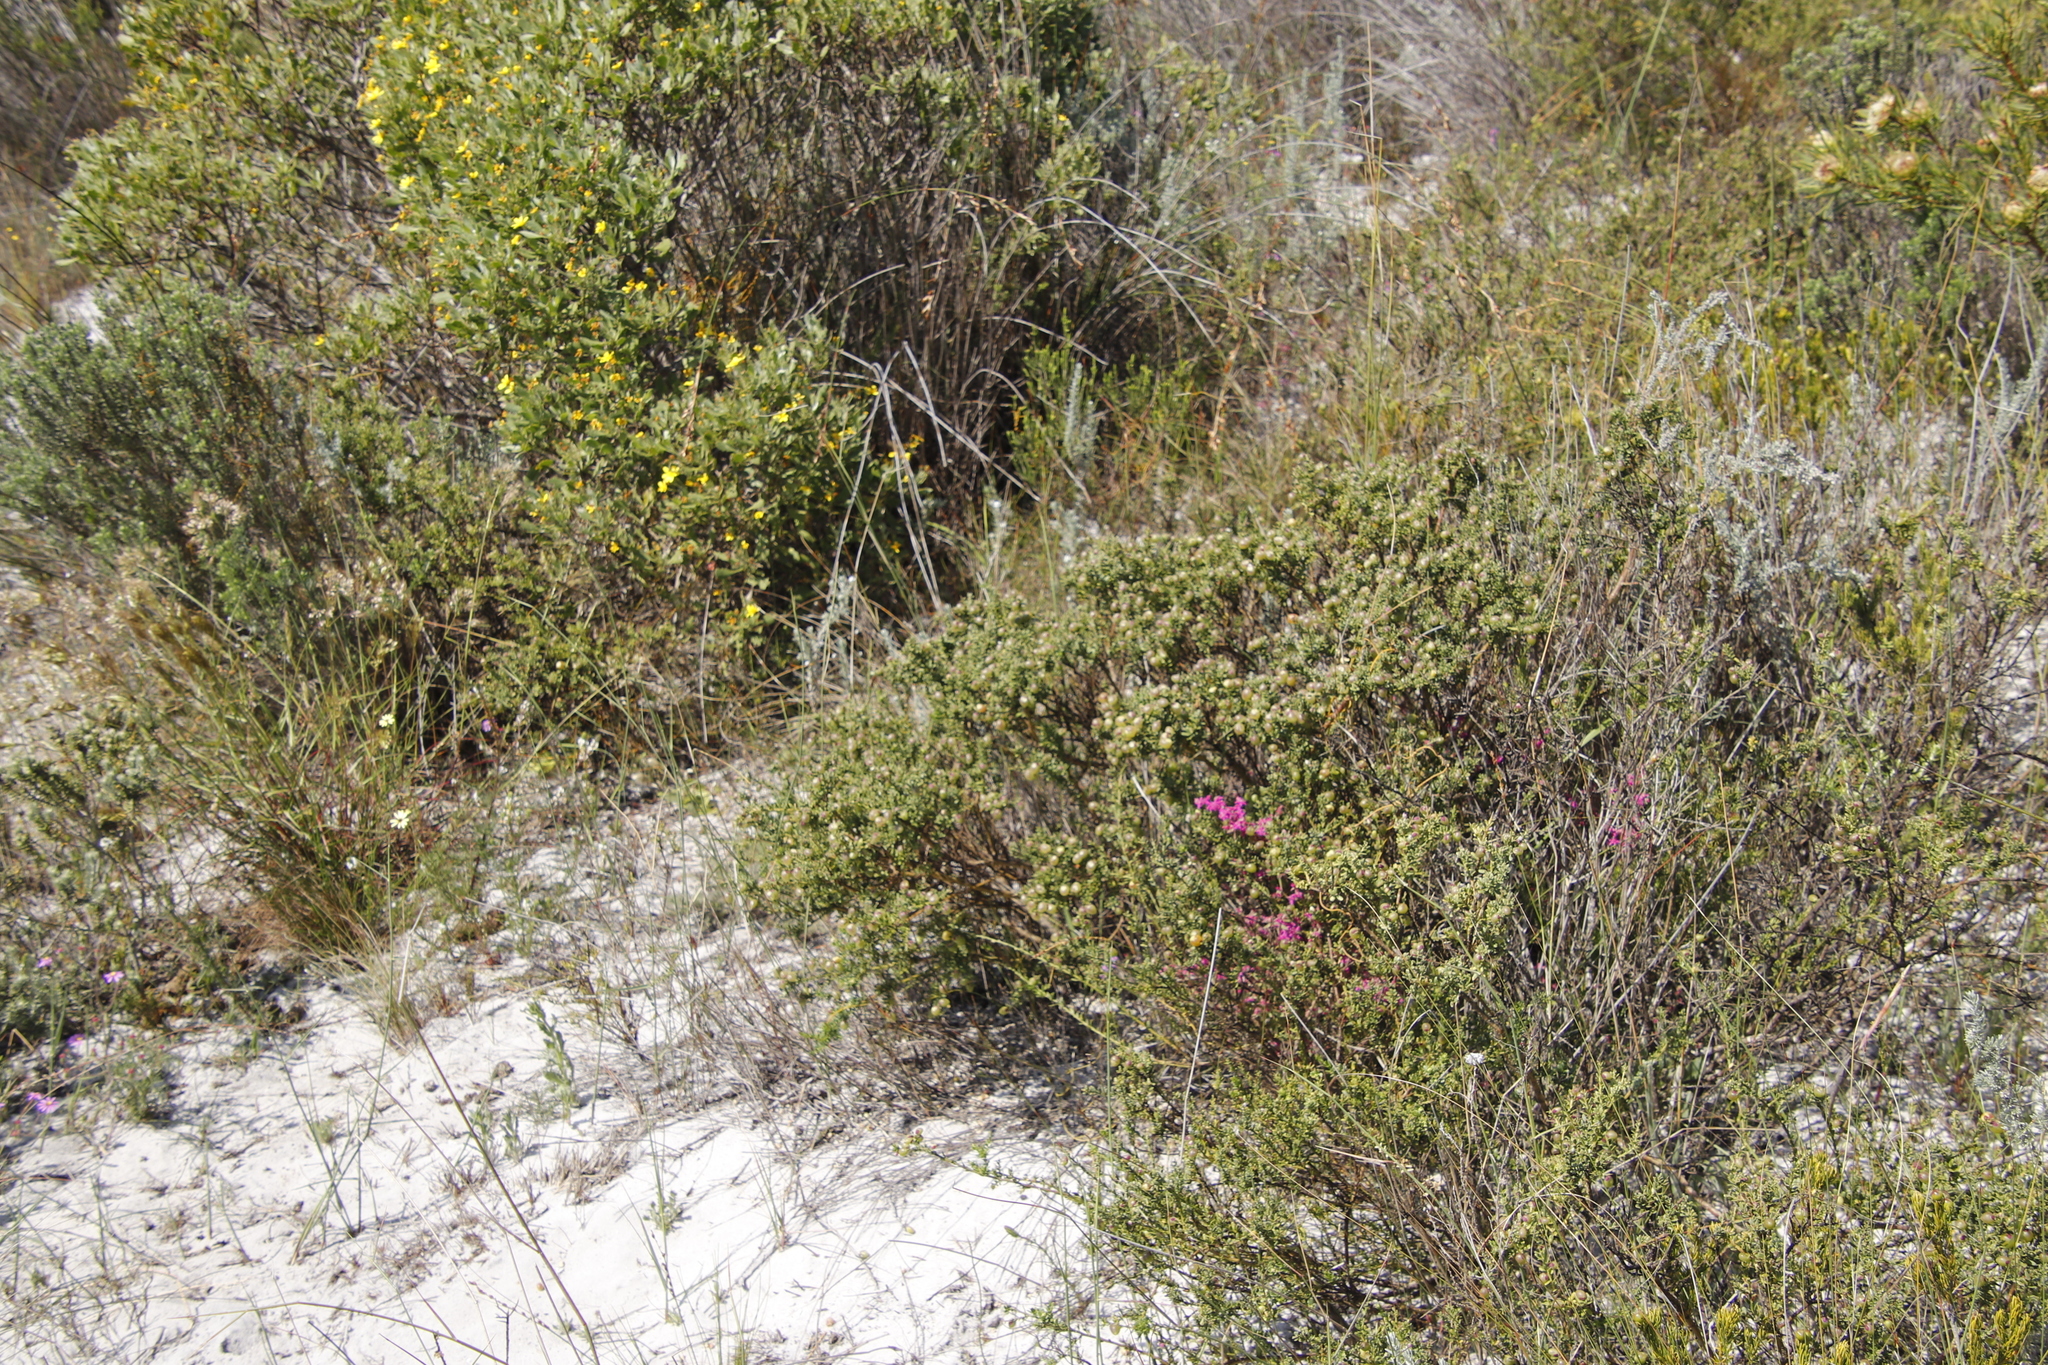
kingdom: Plantae
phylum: Tracheophyta
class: Magnoliopsida
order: Caryophyllales
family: Aizoaceae
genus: Aizoon
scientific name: Aizoon paniculatum
